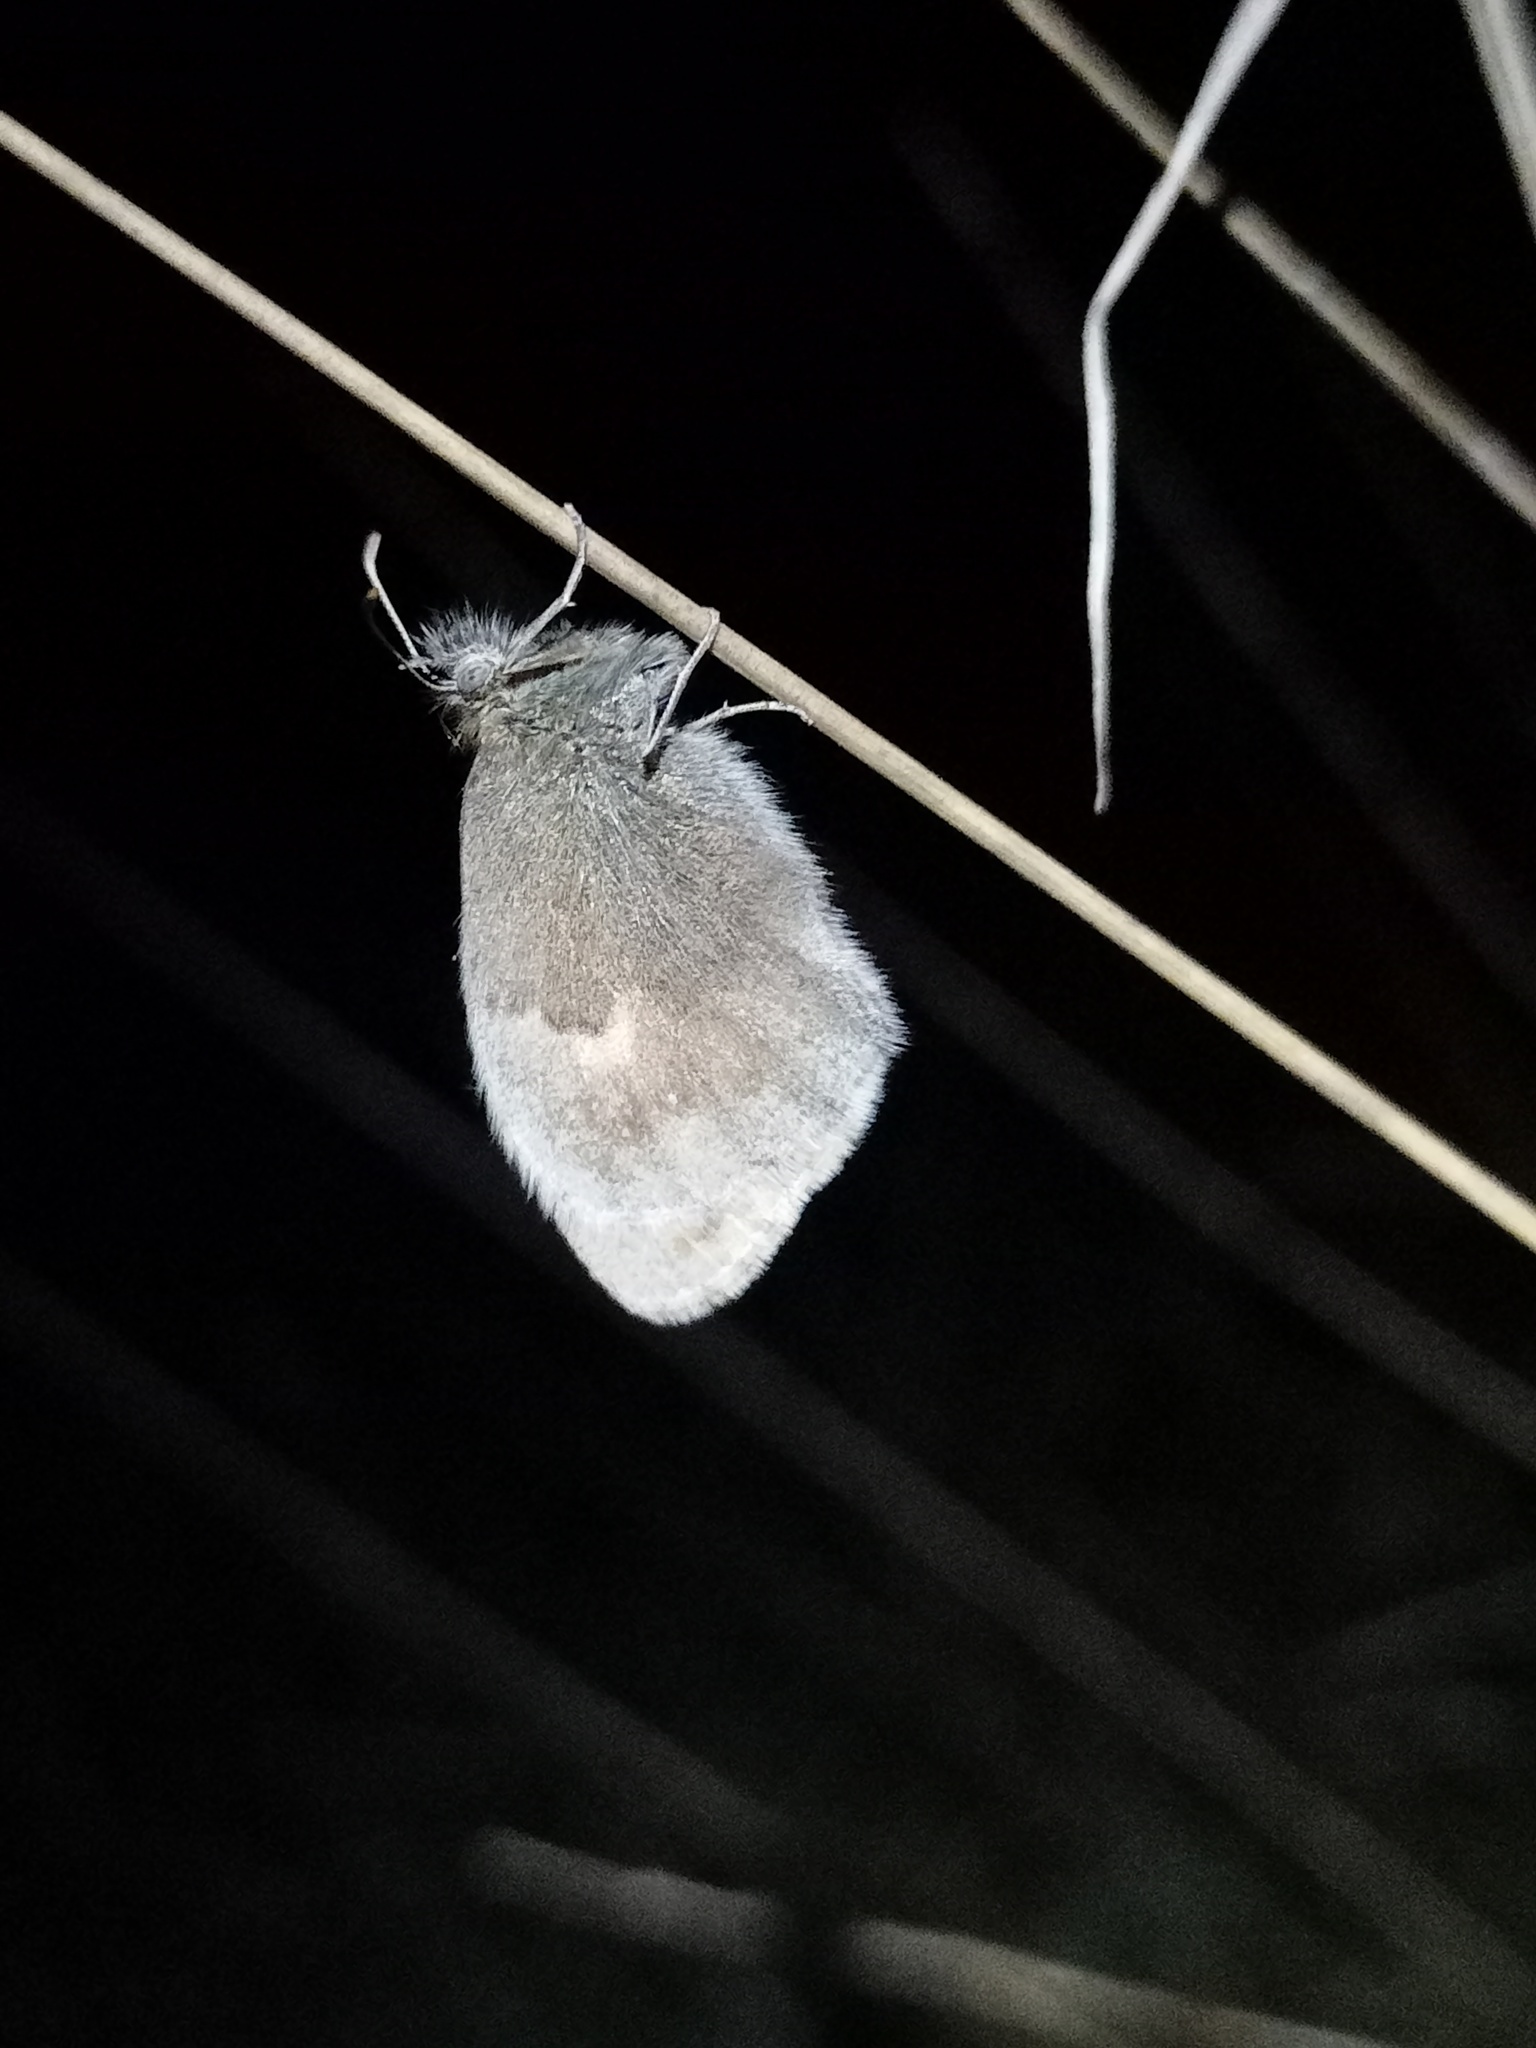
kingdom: Animalia
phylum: Arthropoda
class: Insecta
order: Lepidoptera
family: Nymphalidae
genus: Coenonympha
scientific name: Coenonympha pamphilus
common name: Small heath
